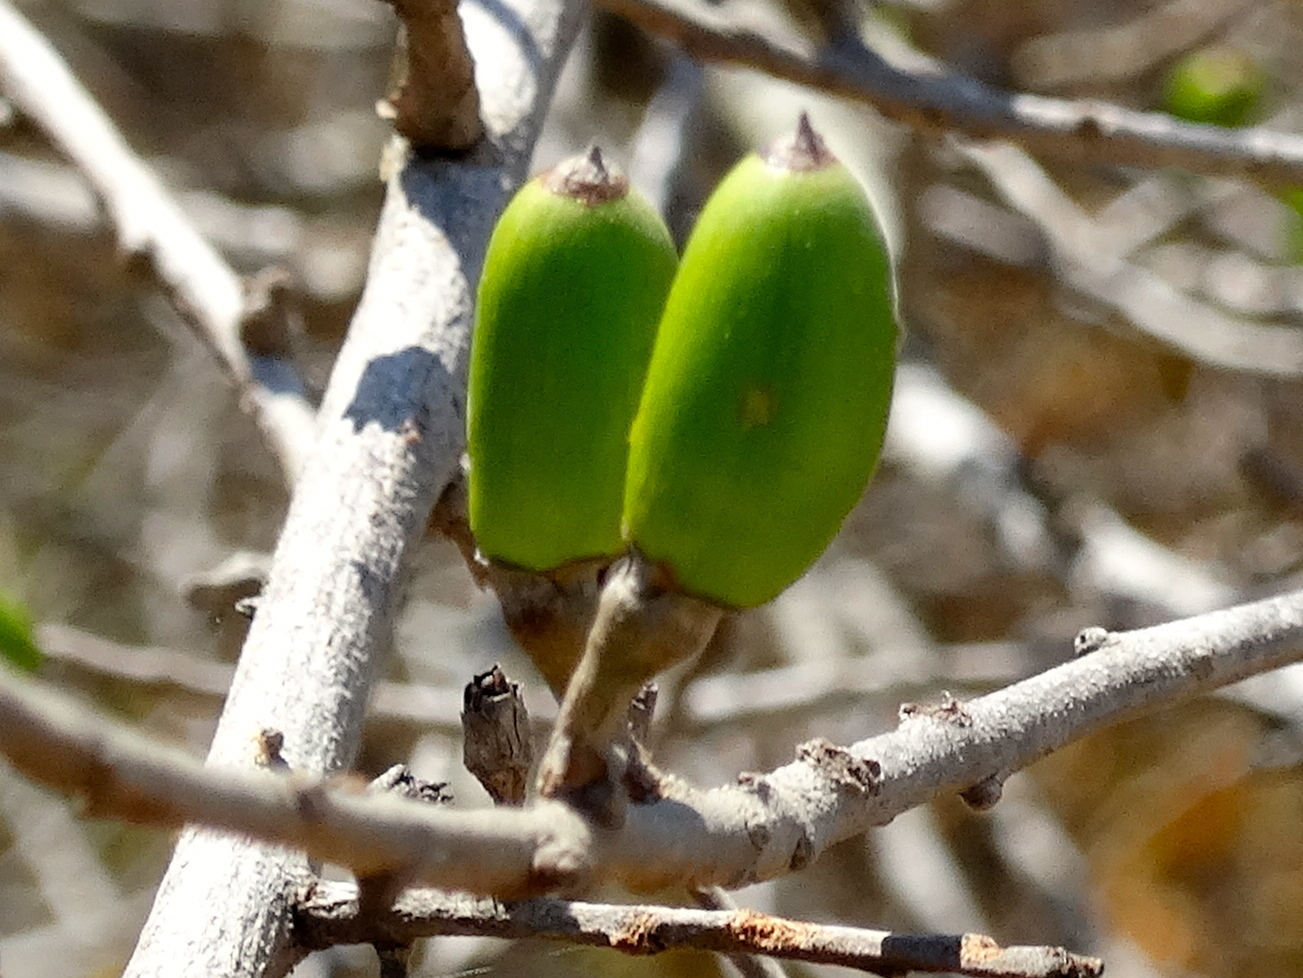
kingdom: Plantae
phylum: Tracheophyta
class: Magnoliopsida
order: Ericales
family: Primulaceae
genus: Bonellia
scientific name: Bonellia macrocarpa
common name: Primrose
